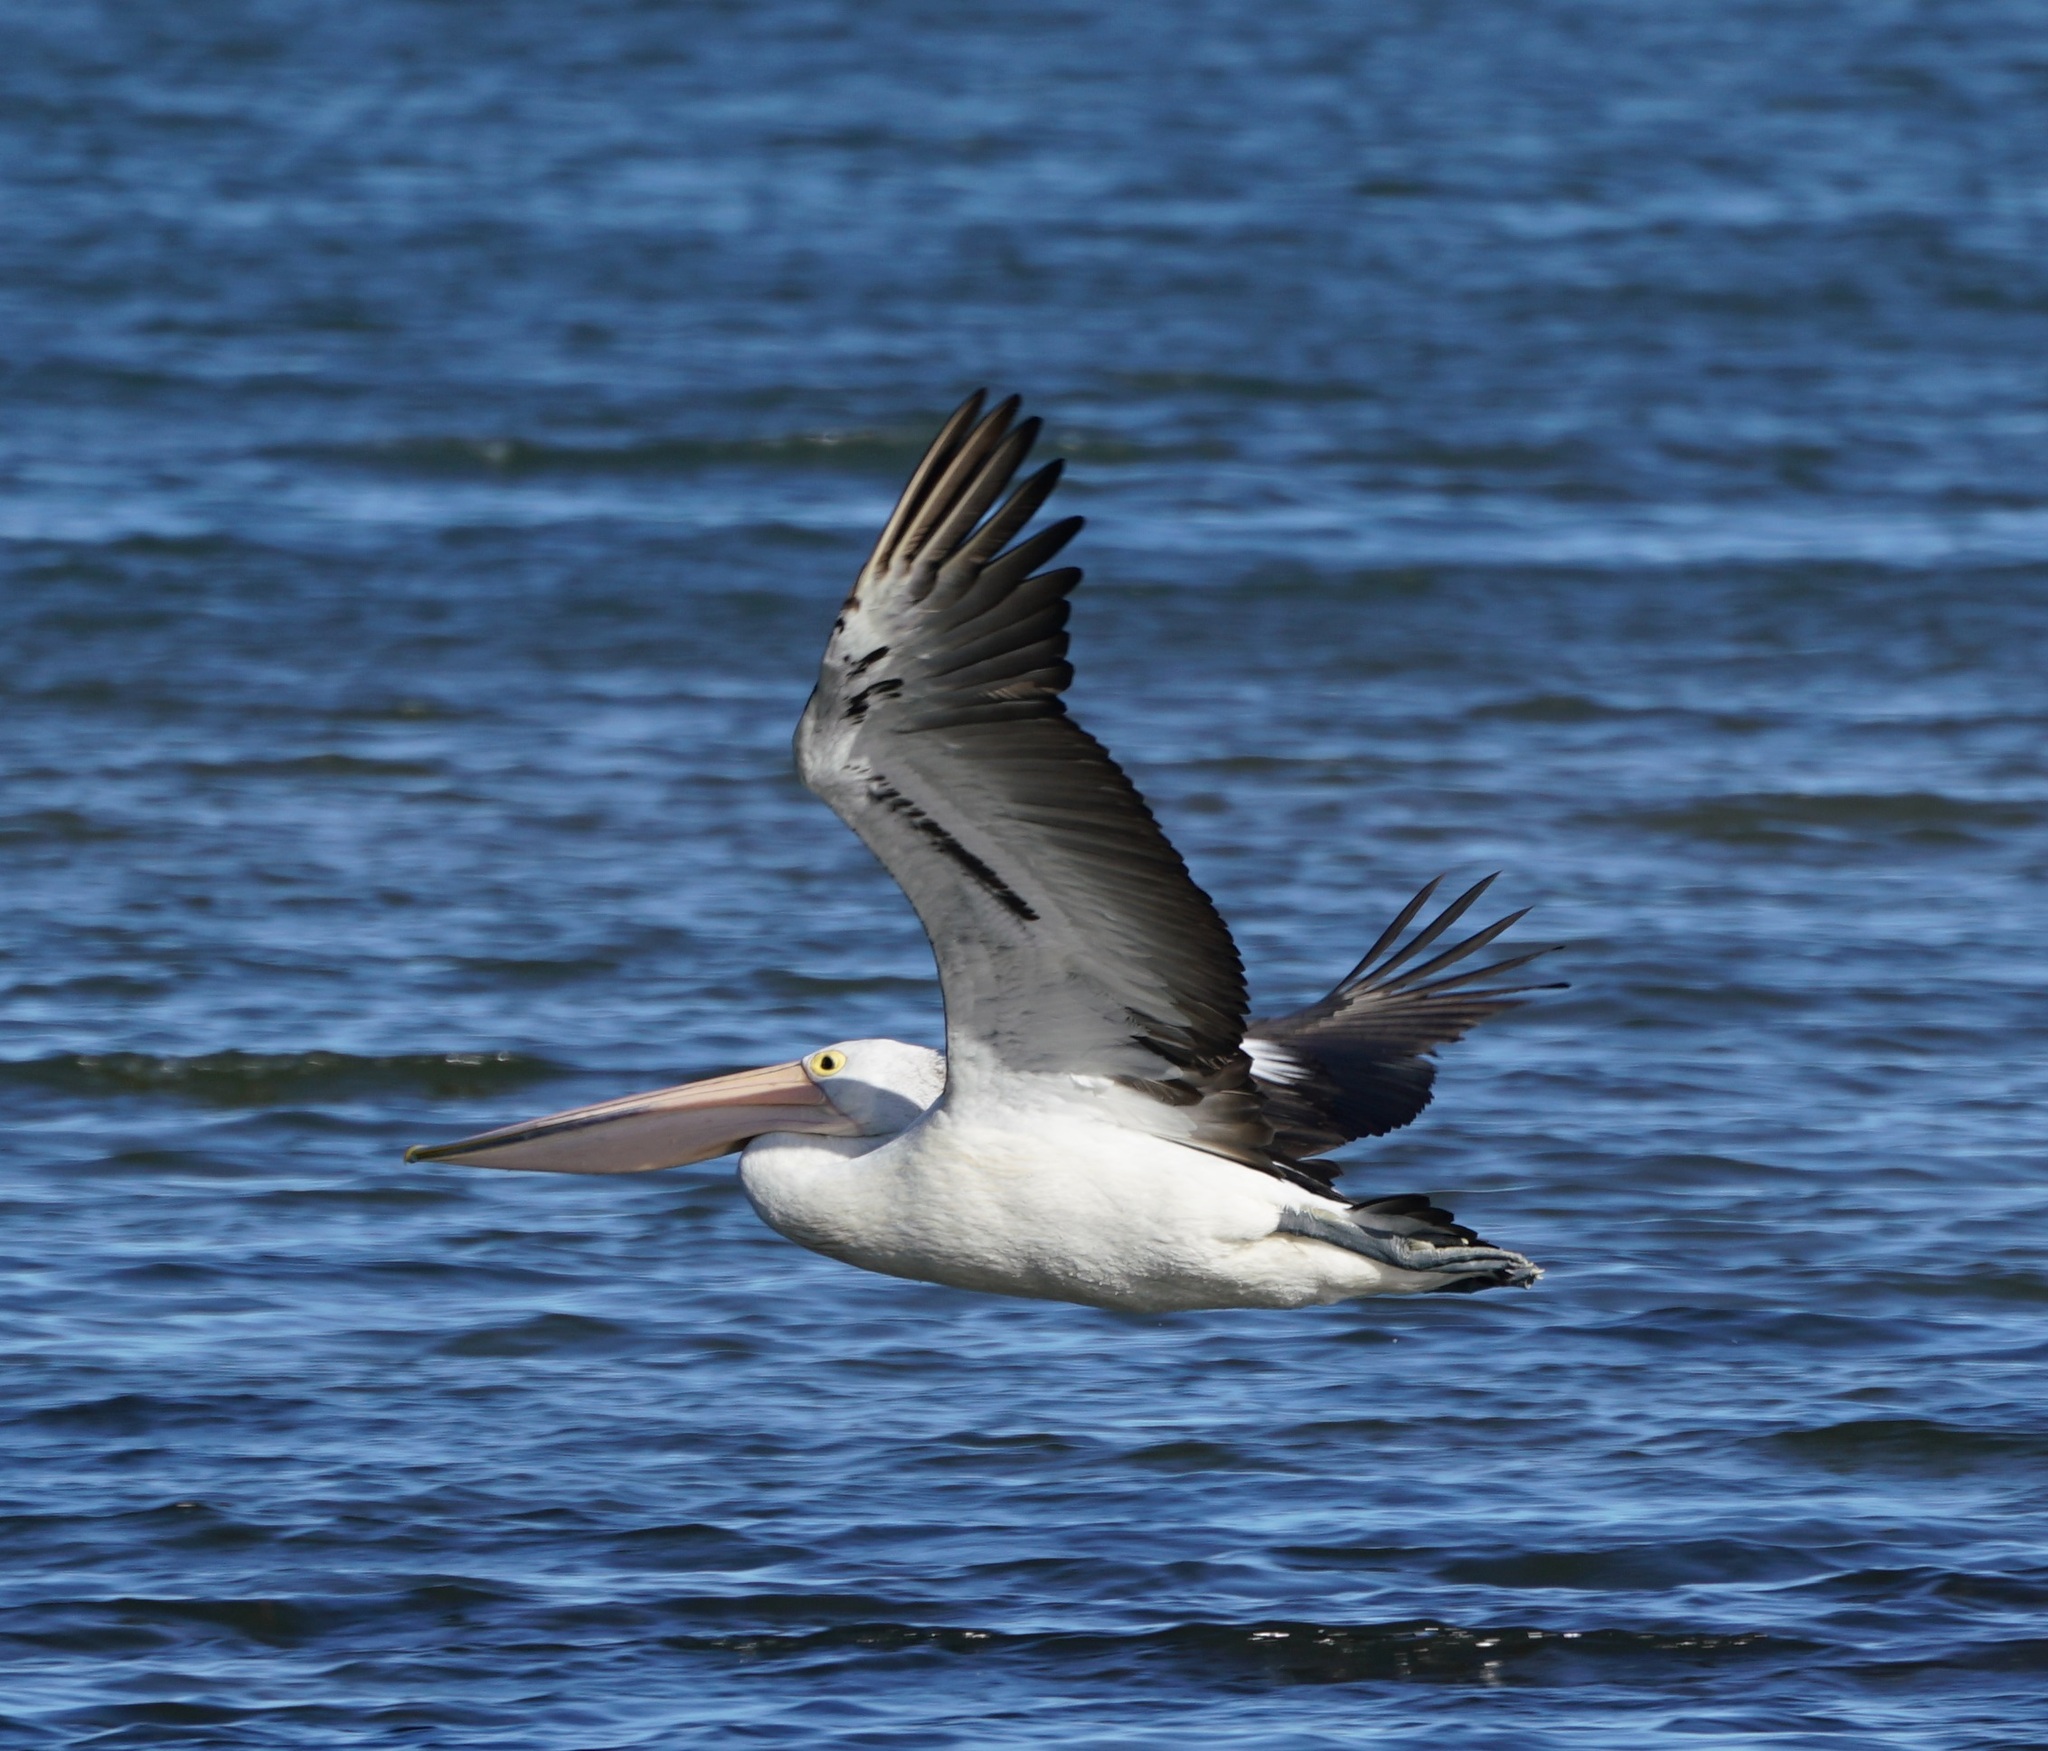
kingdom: Animalia
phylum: Chordata
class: Aves
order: Pelecaniformes
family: Pelecanidae
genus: Pelecanus
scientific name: Pelecanus conspicillatus
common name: Australian pelican
